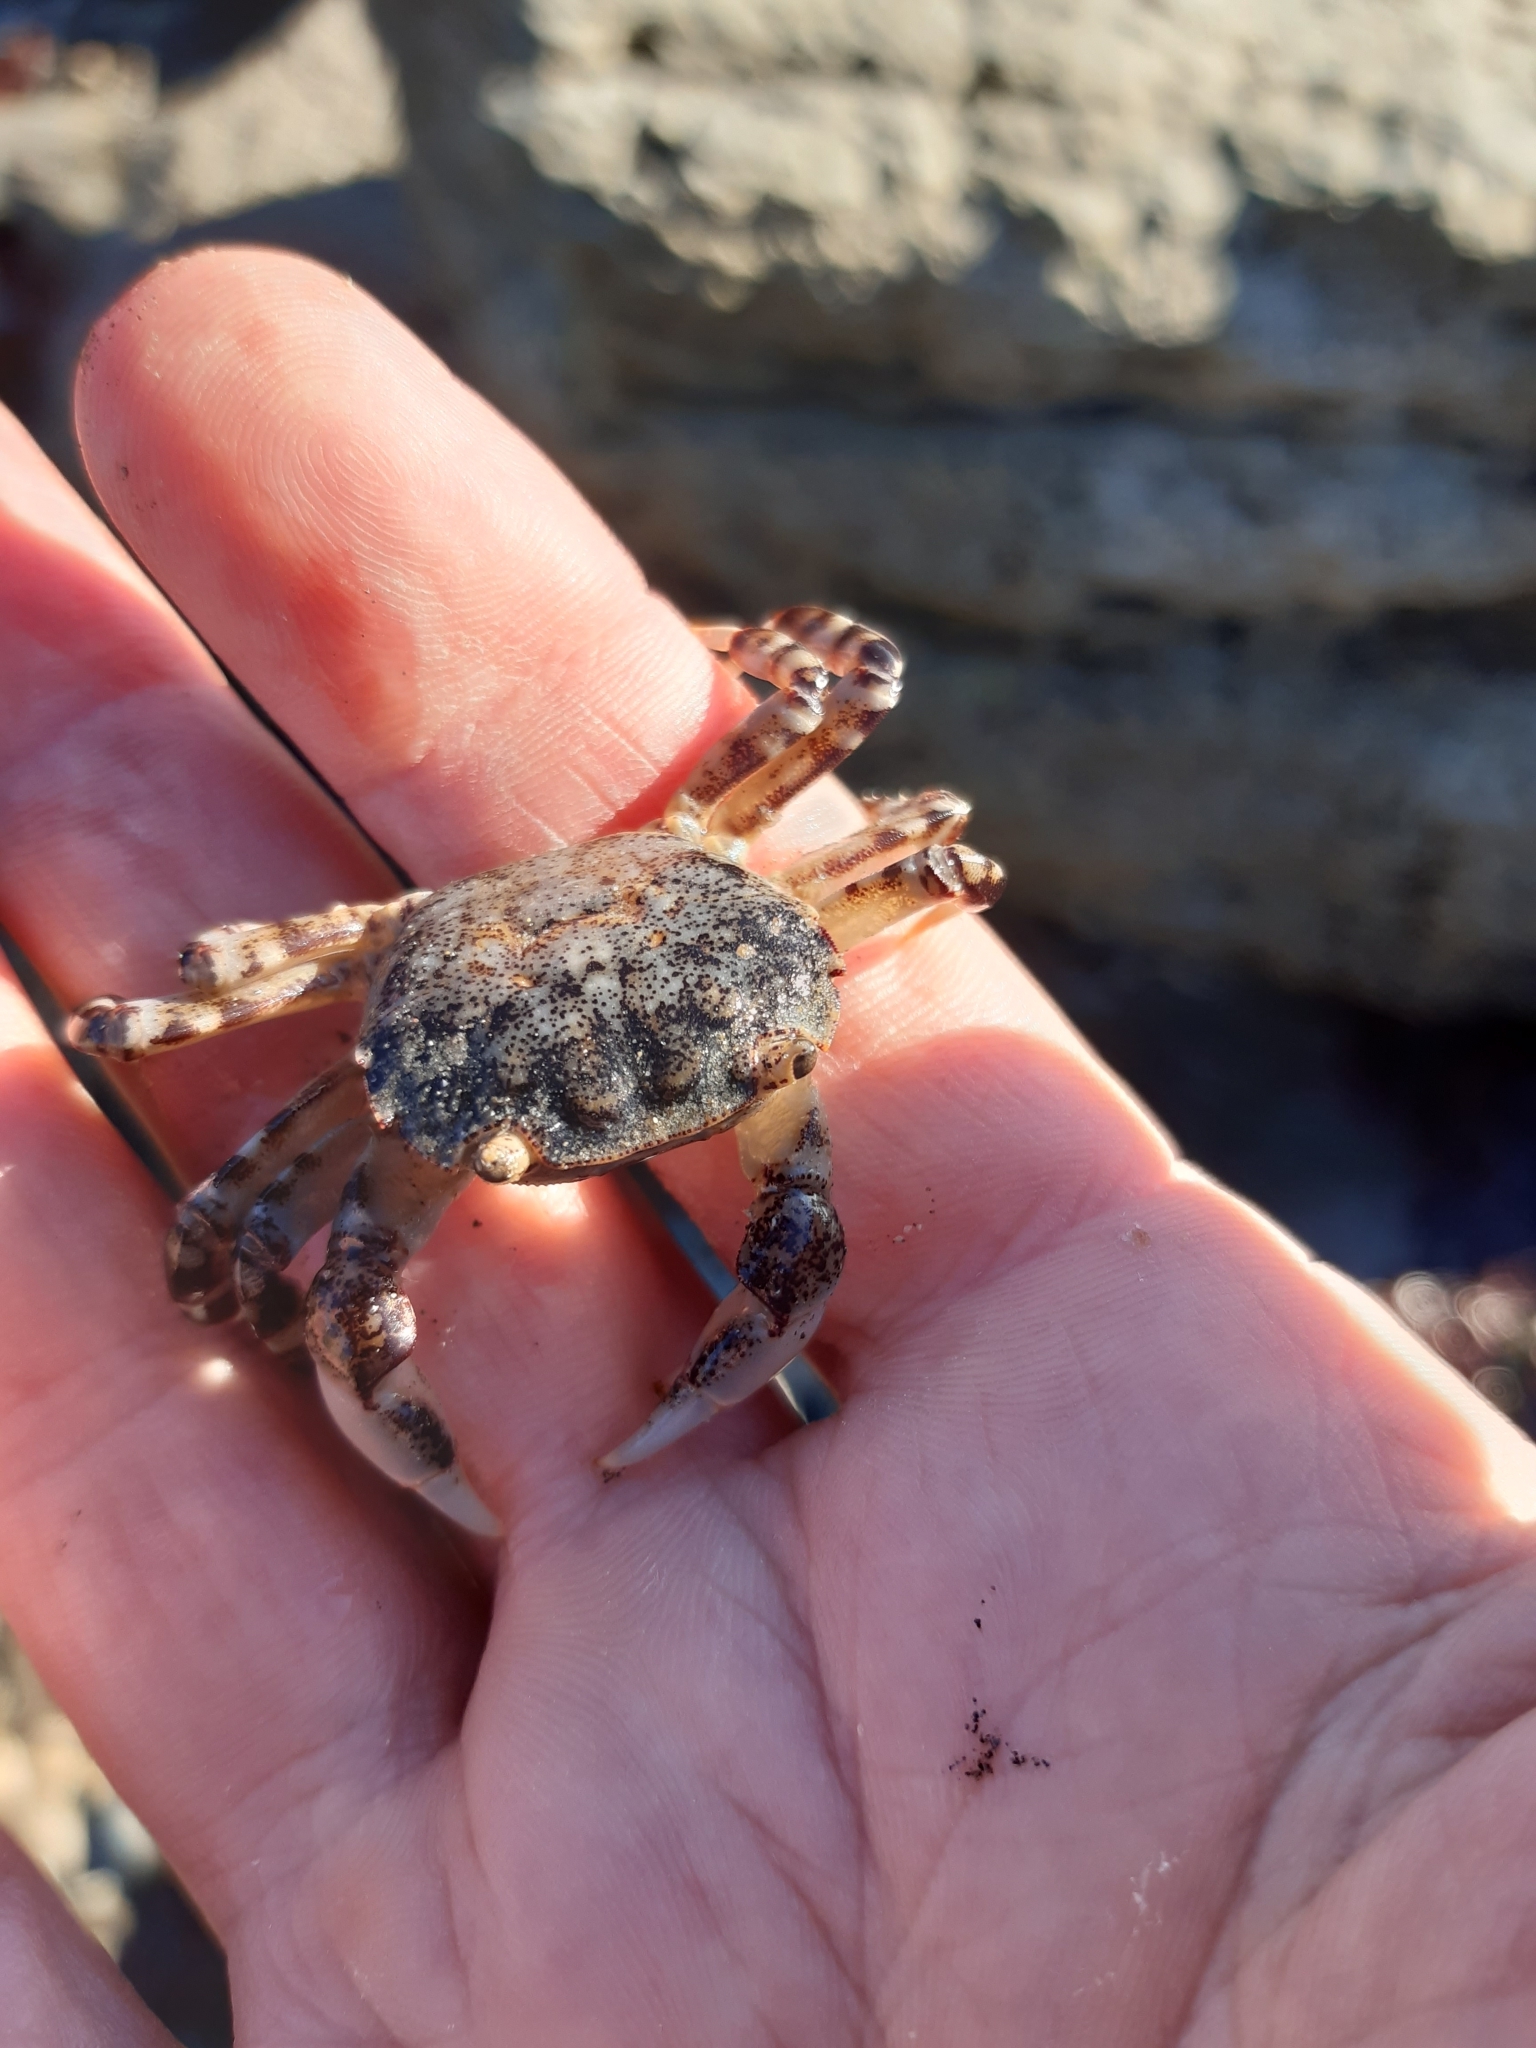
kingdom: Animalia
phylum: Arthropoda
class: Malacostraca
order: Decapoda
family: Varunidae
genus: Hemigrapsus
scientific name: Hemigrapsus sexdentatus
